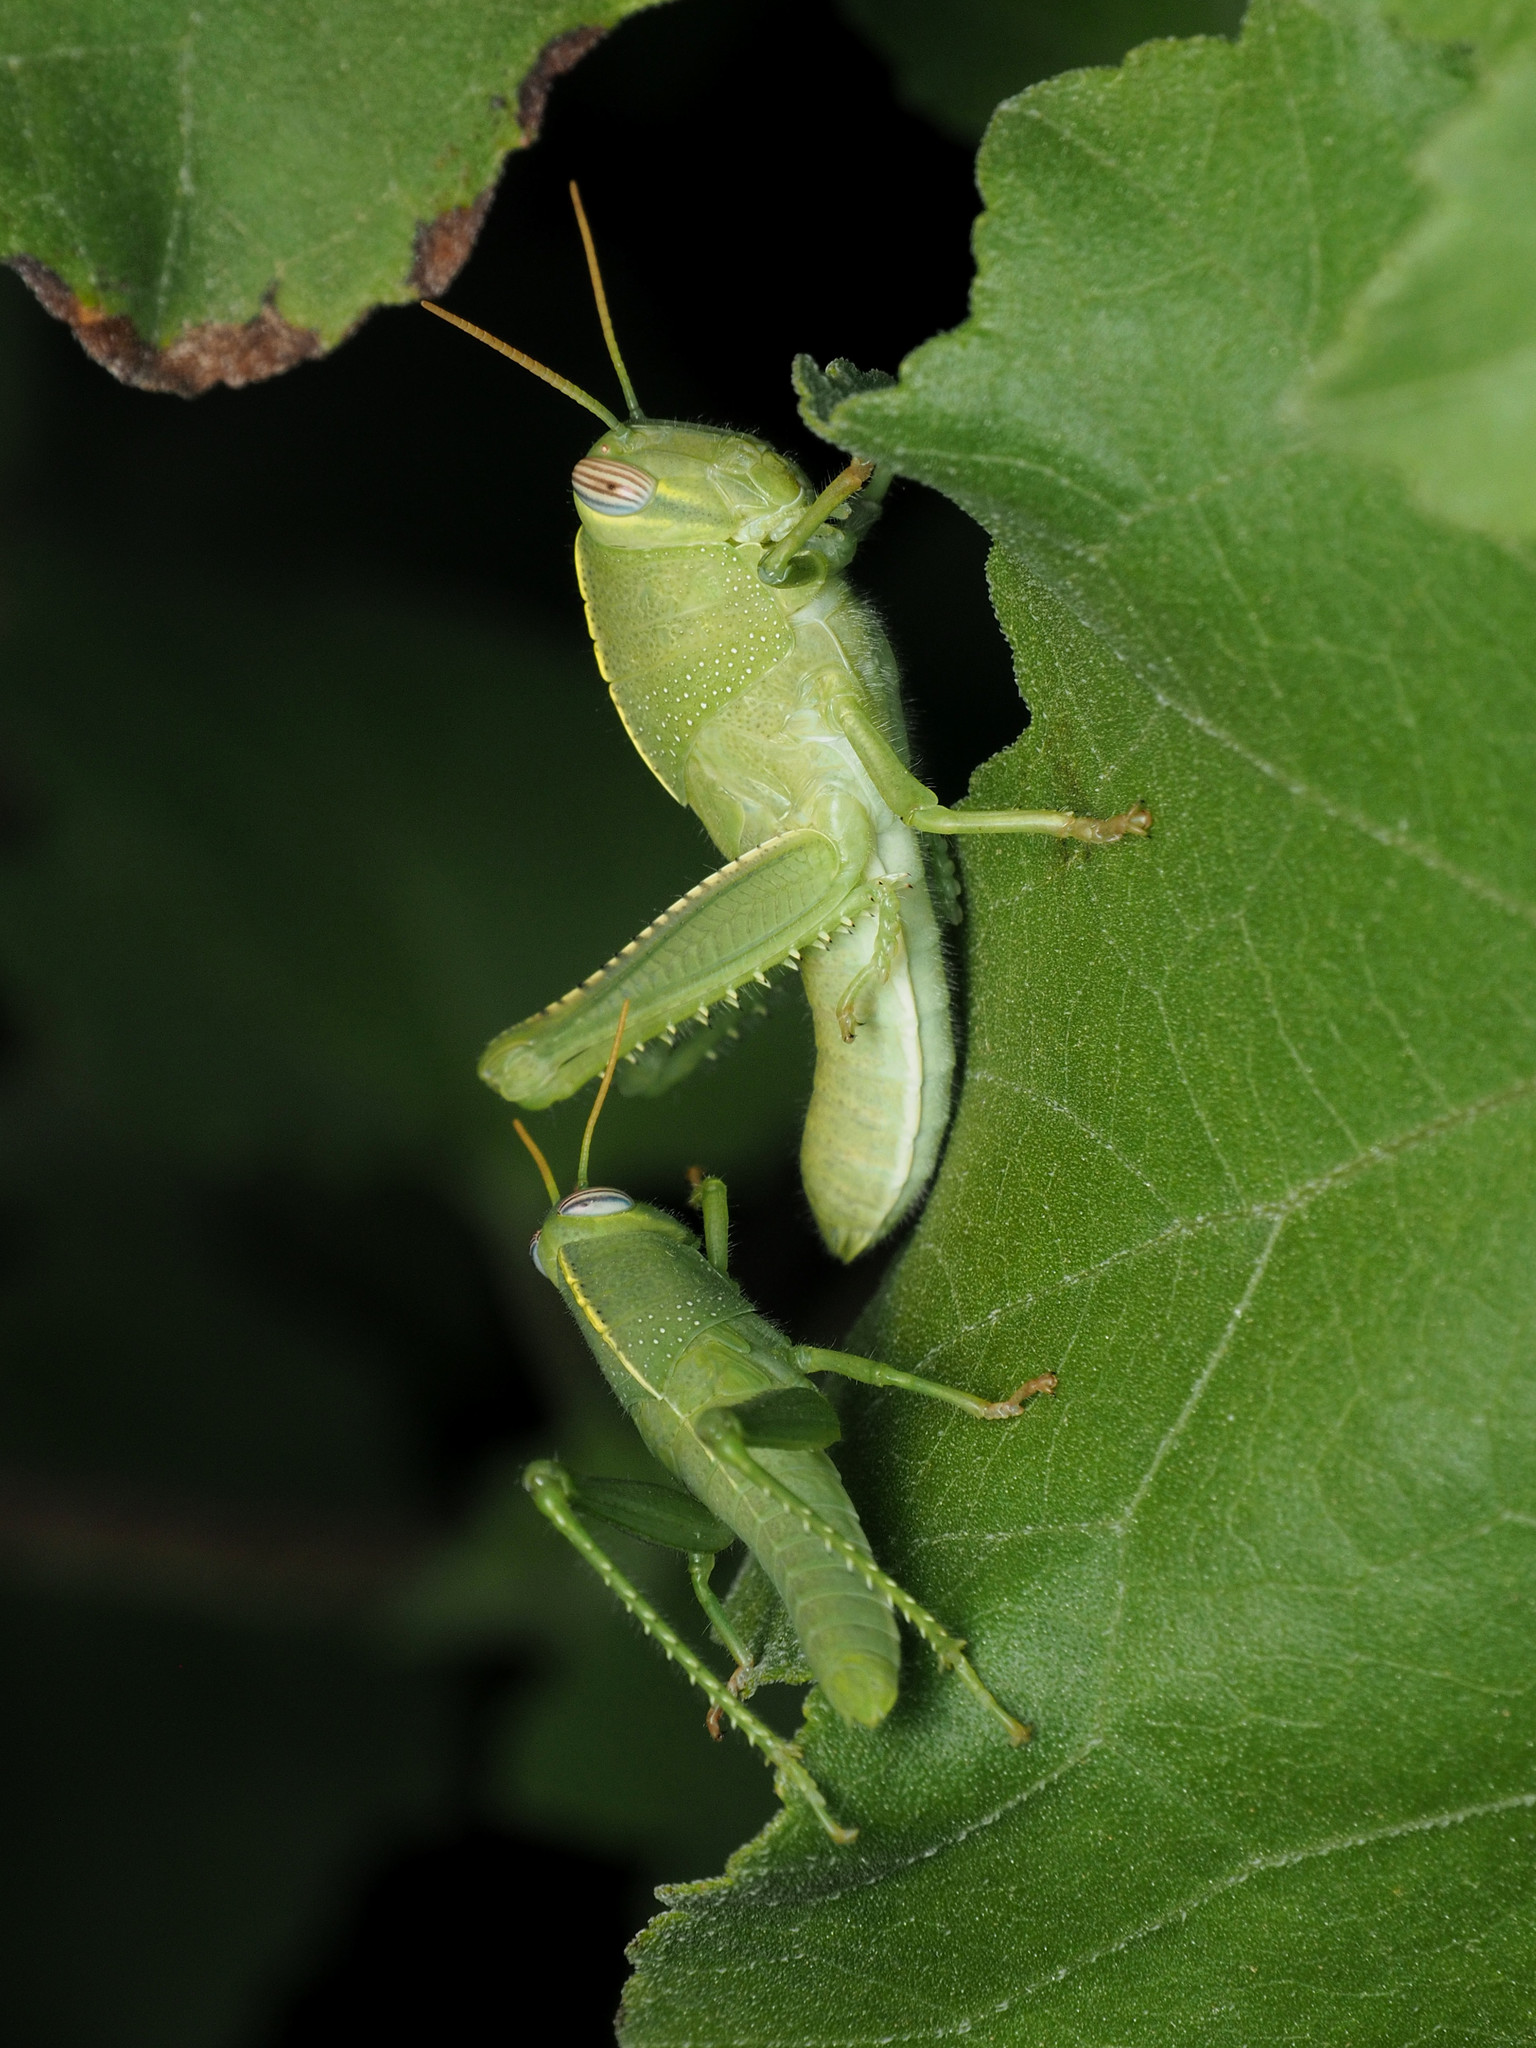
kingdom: Animalia
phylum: Arthropoda
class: Insecta
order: Orthoptera
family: Acrididae
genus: Anacridium
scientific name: Anacridium aegyptium
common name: Egyptian grasshopper
